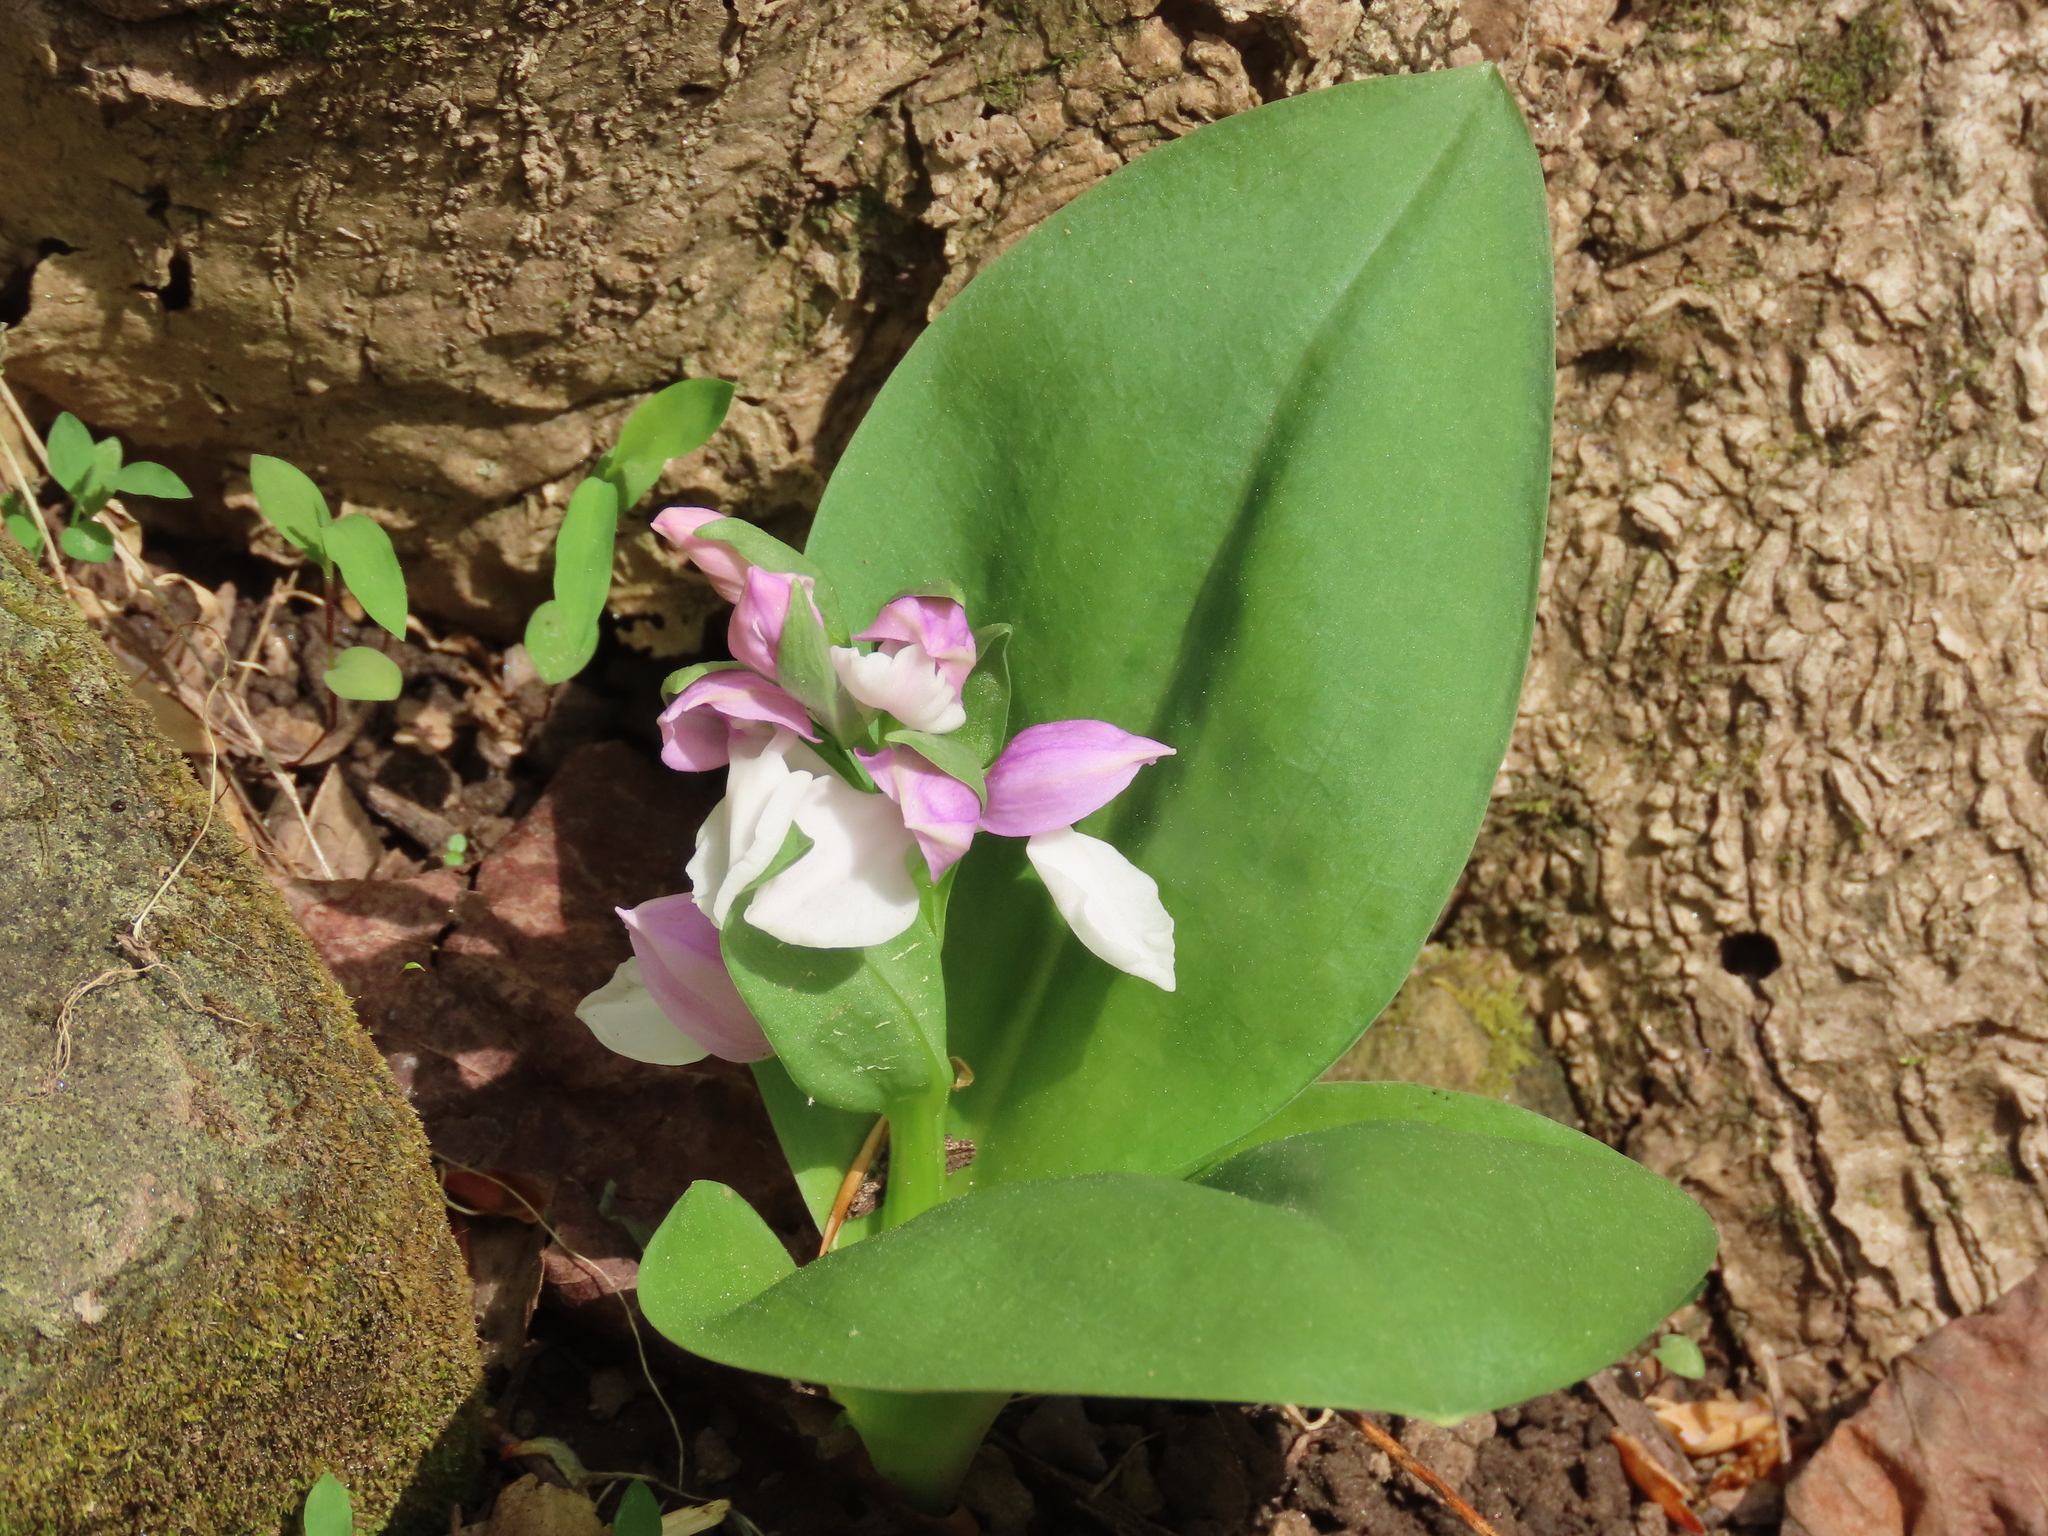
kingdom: Plantae
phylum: Tracheophyta
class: Liliopsida
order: Asparagales
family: Orchidaceae
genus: Galearis
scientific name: Galearis spectabilis
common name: Purple-hooded orchis
